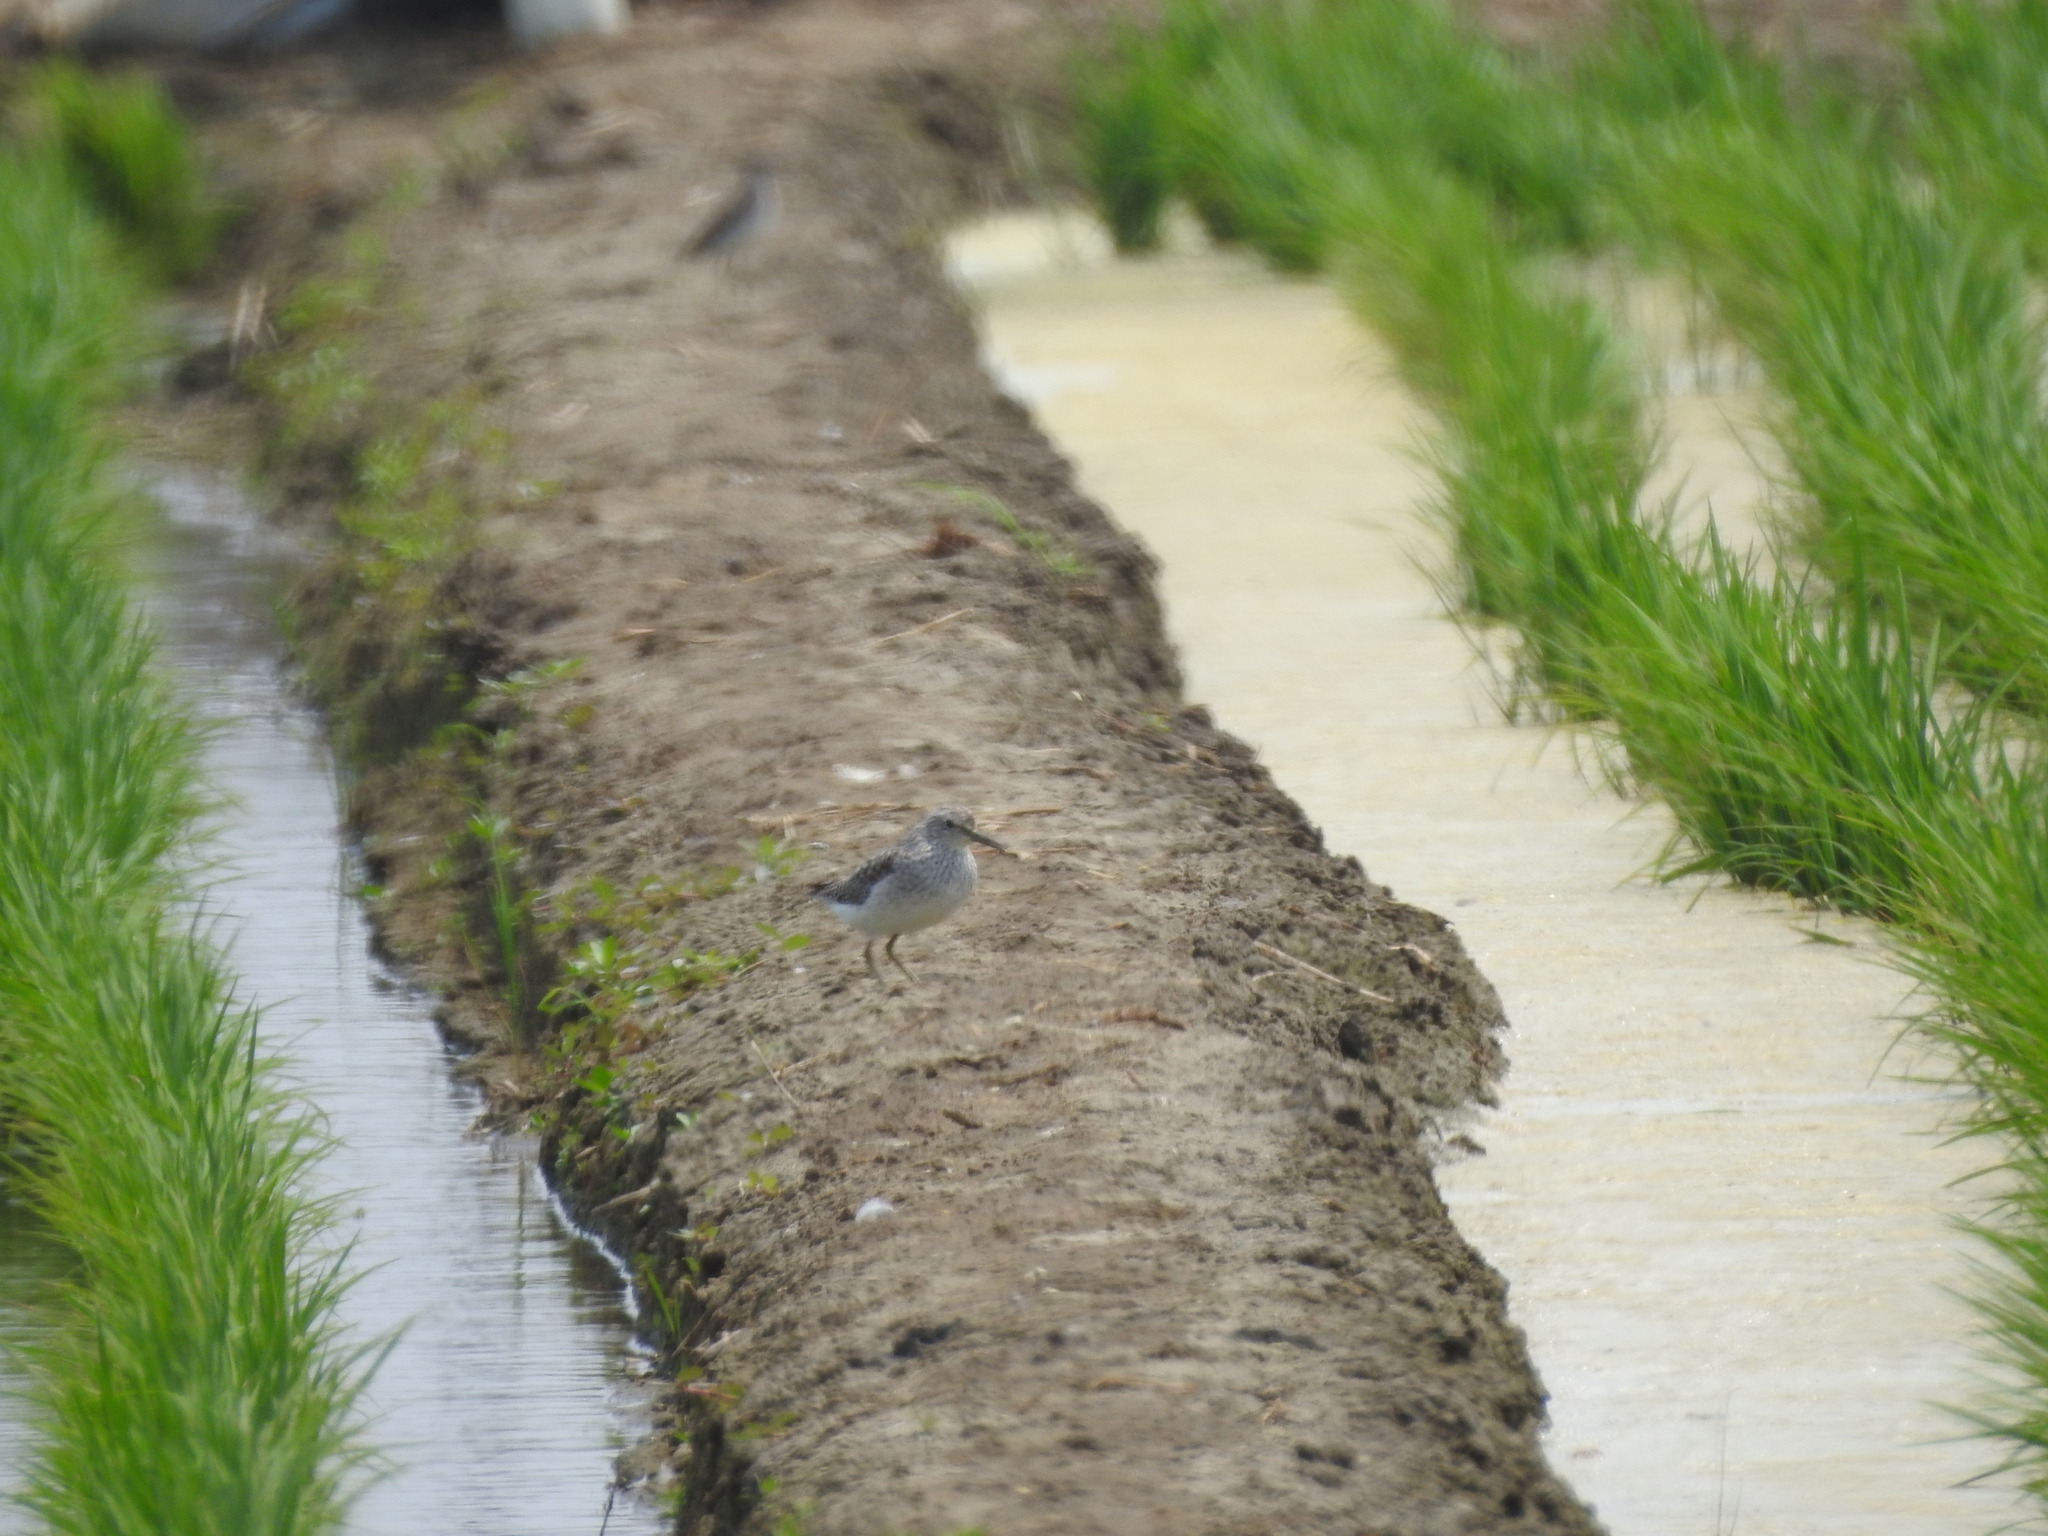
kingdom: Animalia
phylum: Chordata
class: Aves
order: Charadriiformes
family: Scolopacidae
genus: Tringa
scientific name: Tringa glareola
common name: Wood sandpiper
